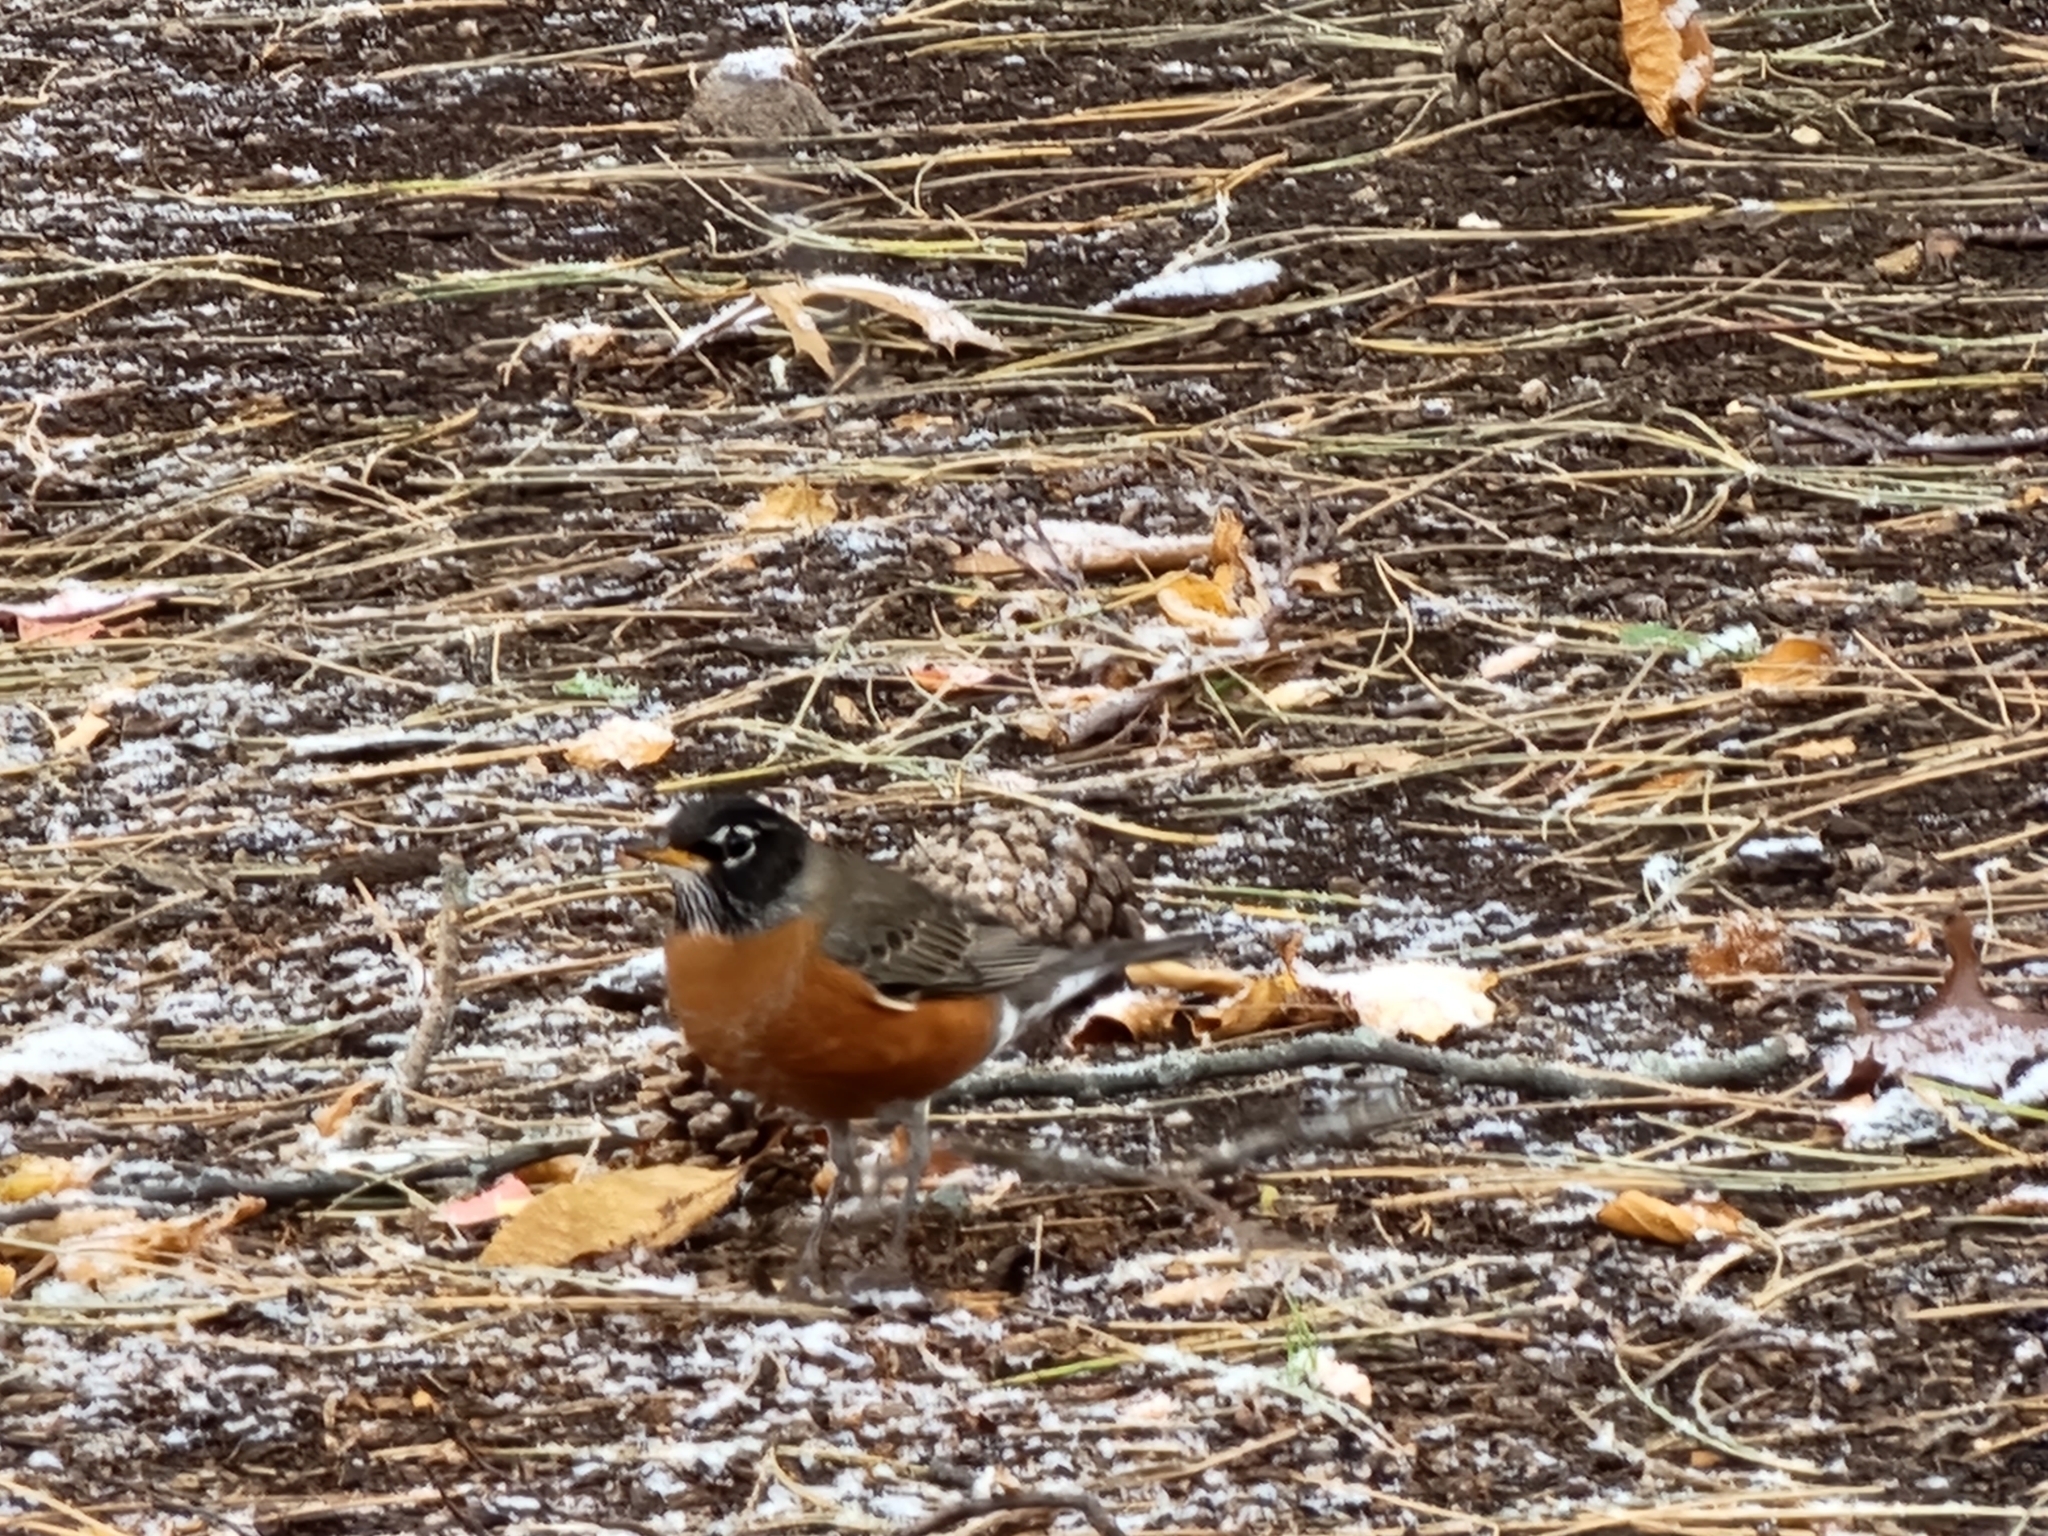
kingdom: Animalia
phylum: Chordata
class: Aves
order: Passeriformes
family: Turdidae
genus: Turdus
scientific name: Turdus migratorius
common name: American robin
